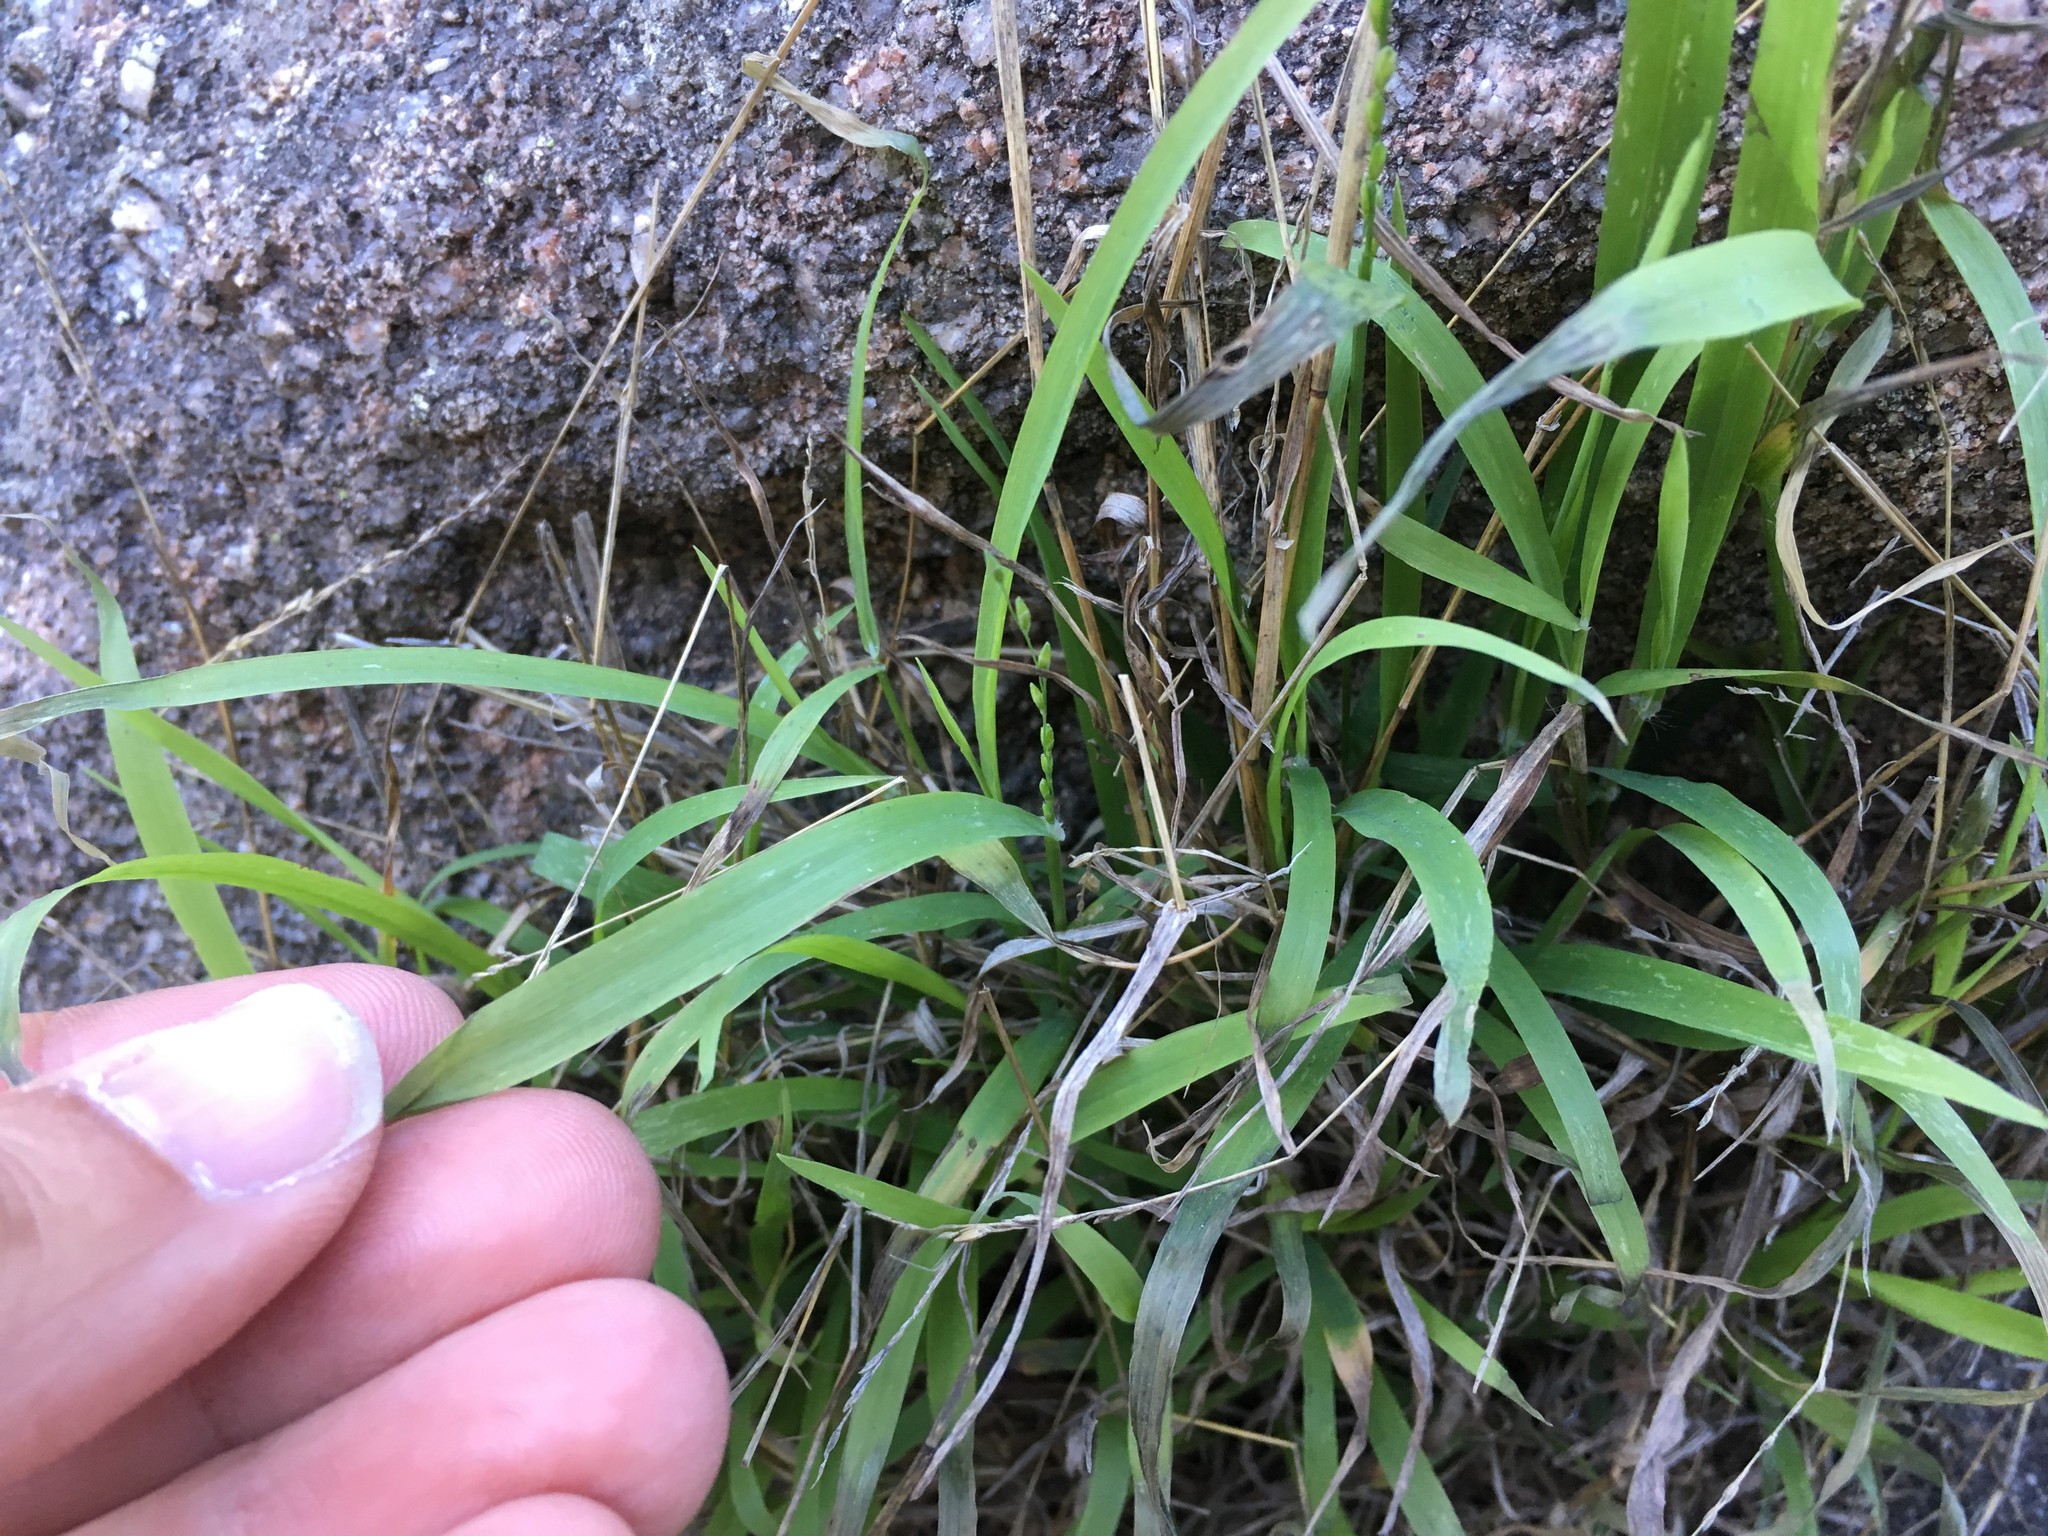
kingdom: Plantae
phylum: Tracheophyta
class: Liliopsida
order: Poales
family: Poaceae
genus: Ehrharta
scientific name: Ehrharta erecta
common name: Panic veldtgrass
